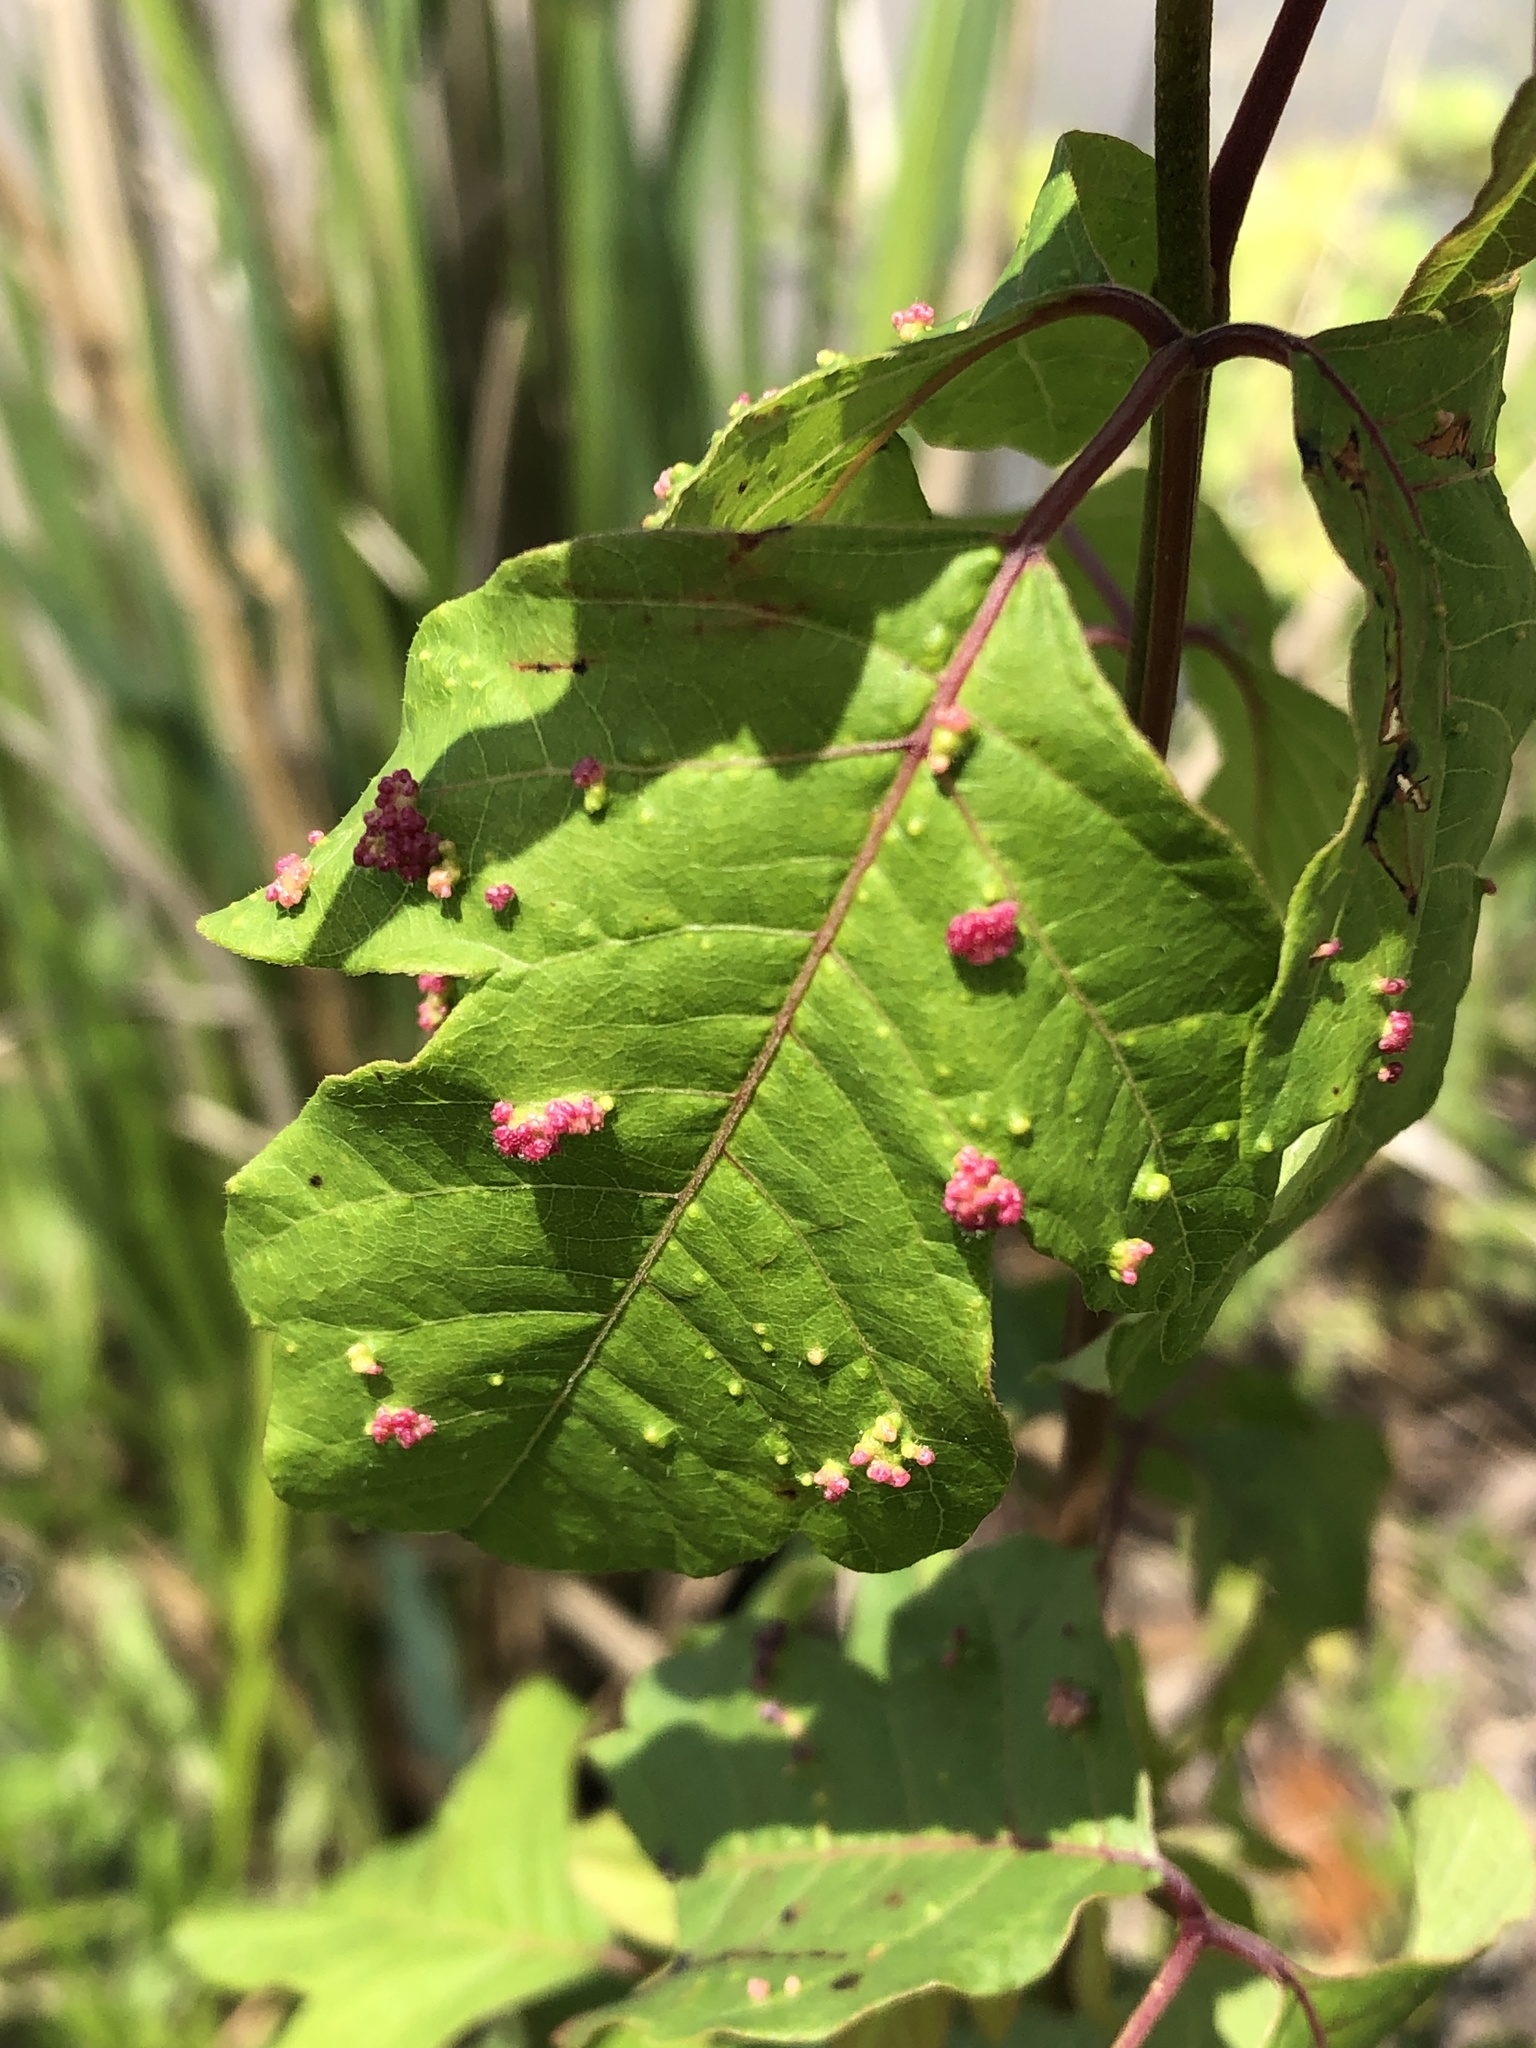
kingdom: Animalia
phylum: Arthropoda
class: Arachnida
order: Trombidiformes
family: Eriophyidae
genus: Aculops
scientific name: Aculops
